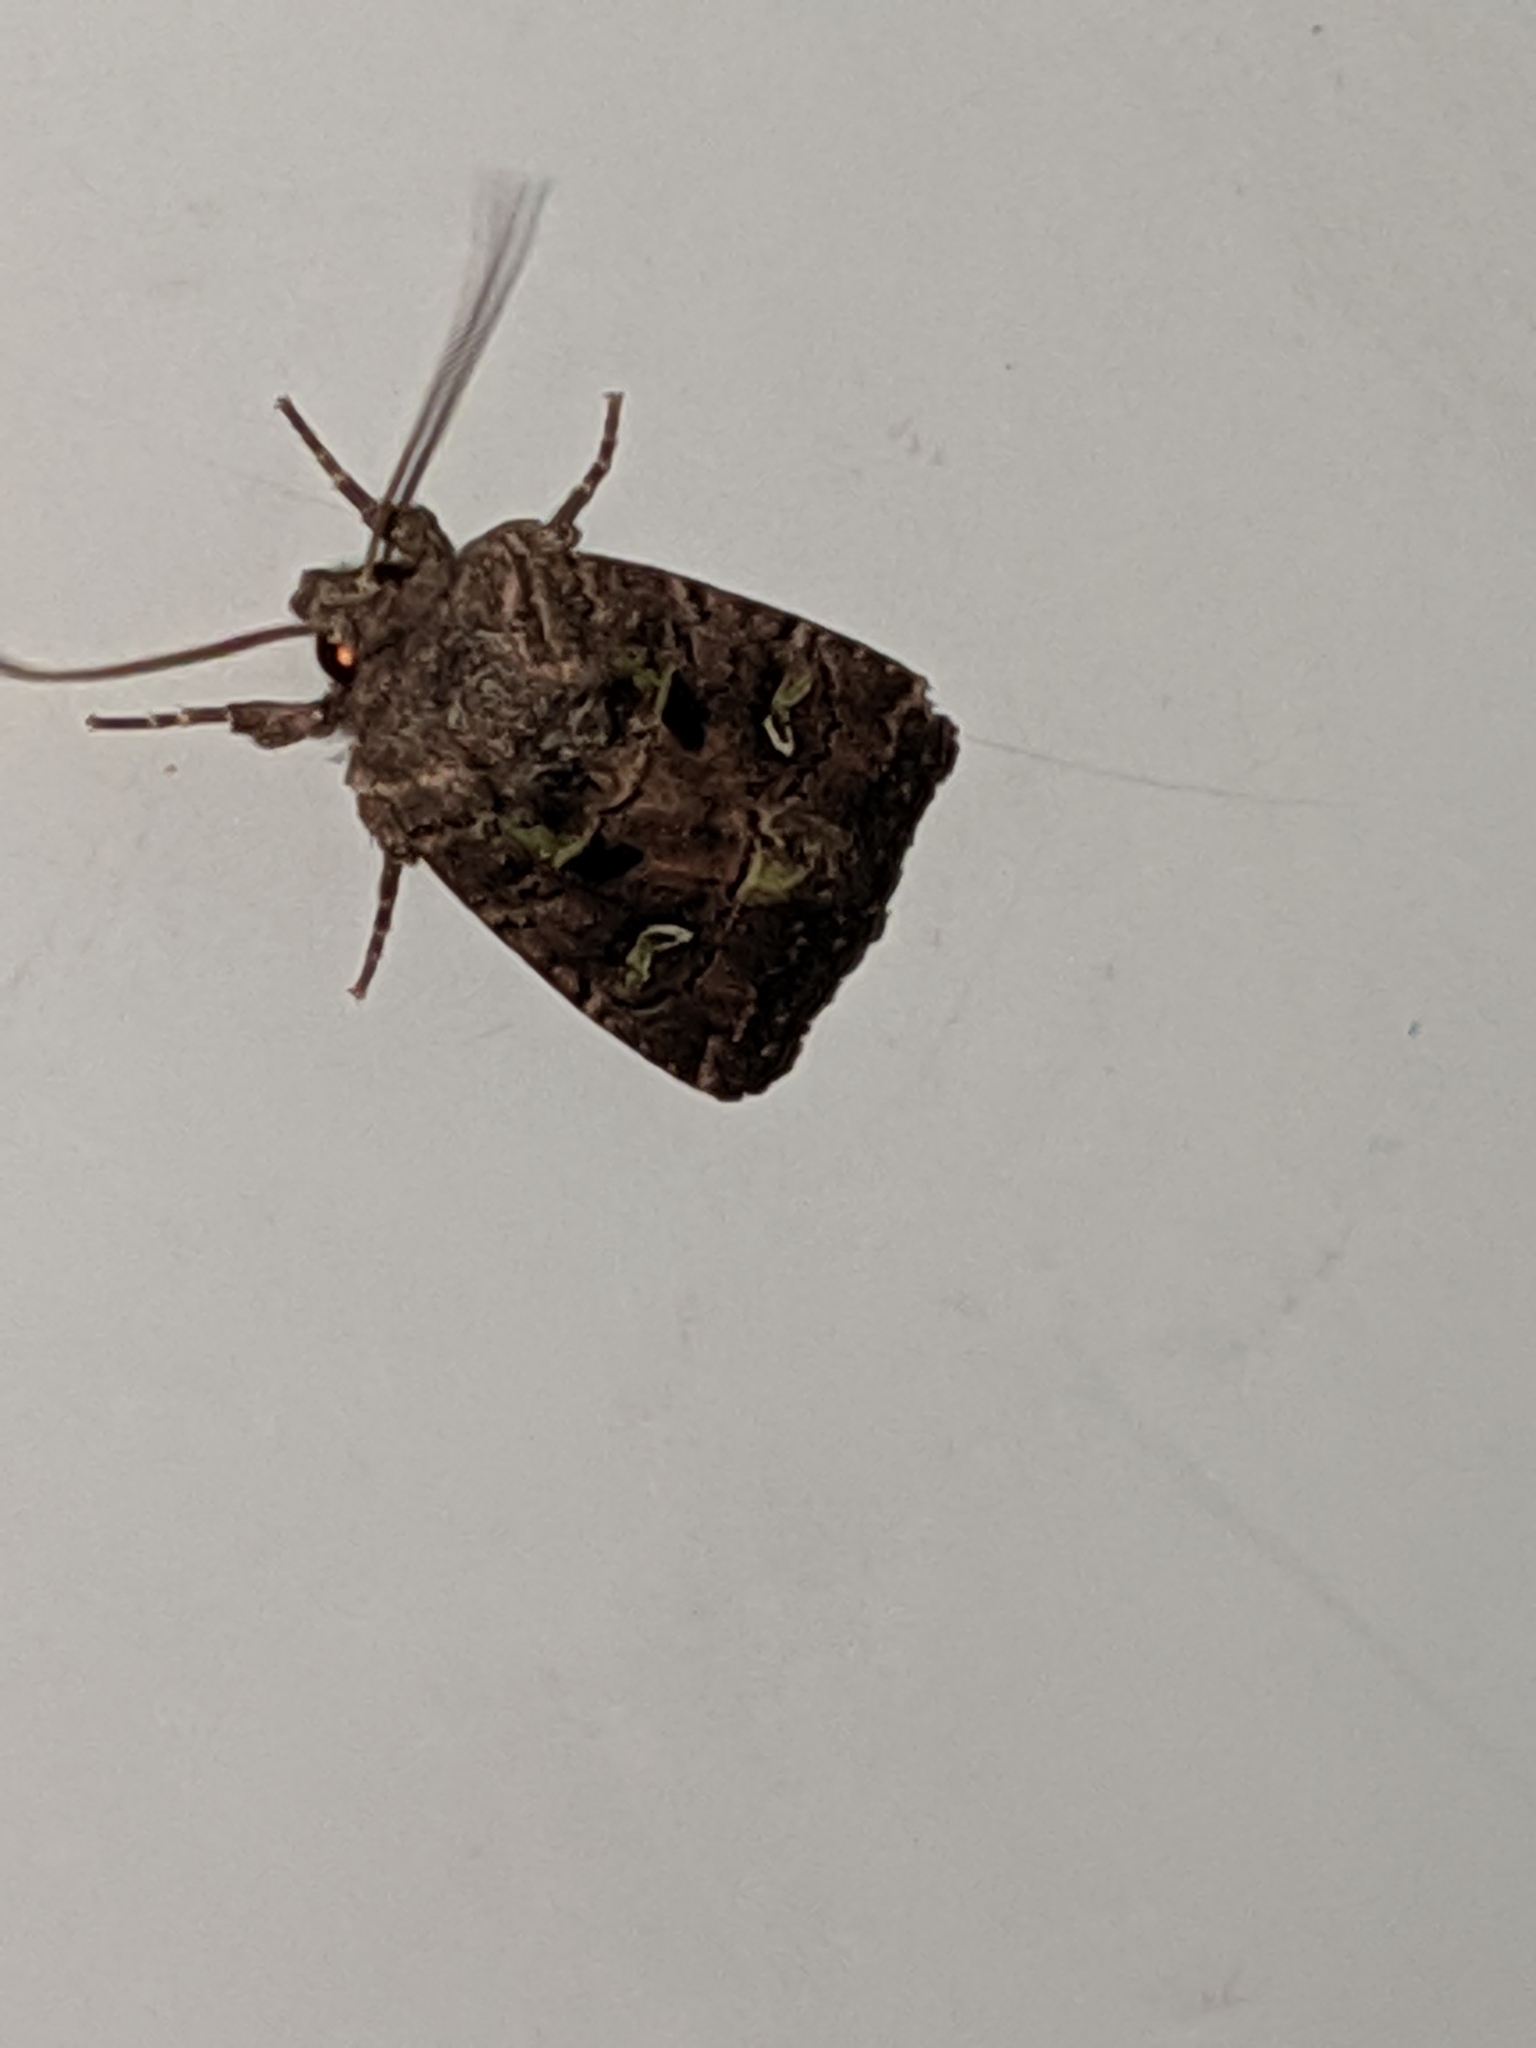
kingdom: Animalia
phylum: Arthropoda
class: Insecta
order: Lepidoptera
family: Noctuidae
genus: Lacinipolia
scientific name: Lacinipolia renigera
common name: Kidney-spotted minor
